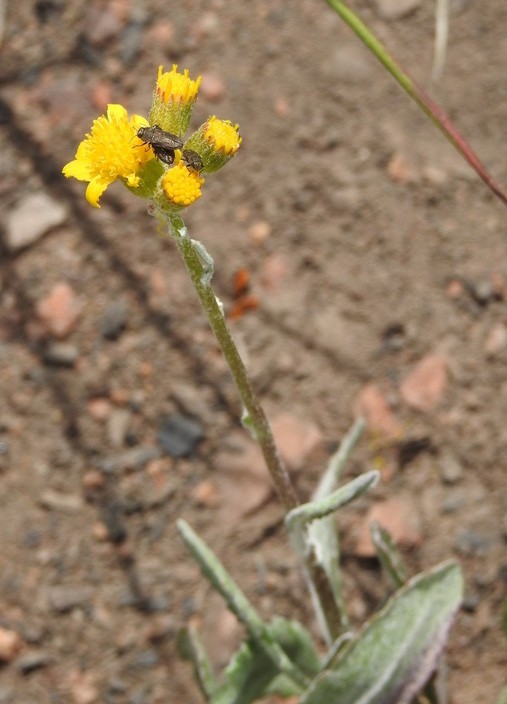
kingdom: Plantae
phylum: Tracheophyta
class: Magnoliopsida
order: Asterales
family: Asteraceae
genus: Packera
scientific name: Packera neomexicana
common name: New mexico butterweed
